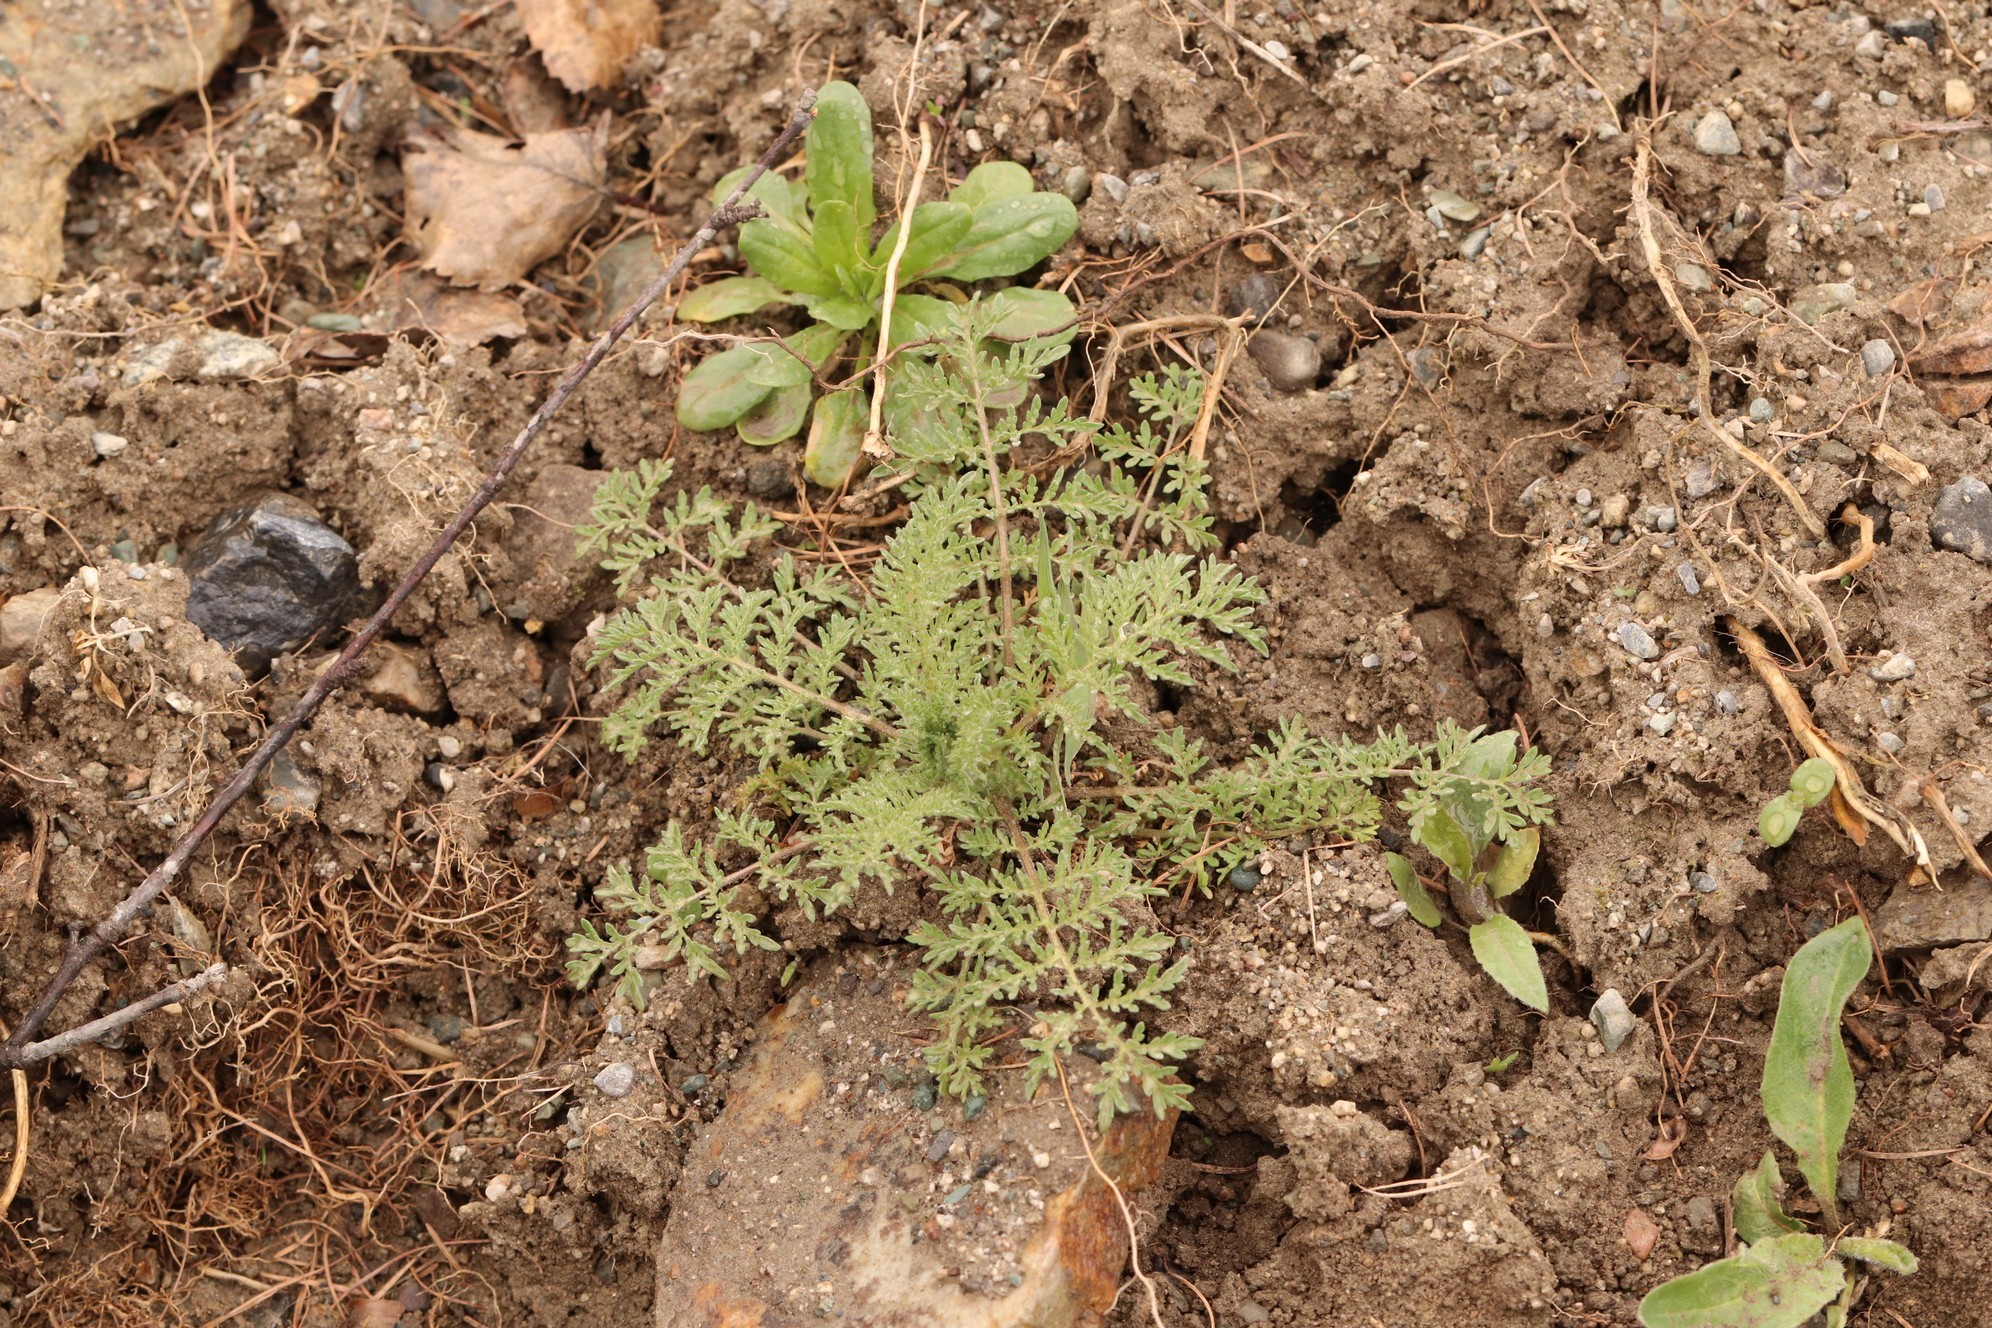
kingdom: Plantae
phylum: Tracheophyta
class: Magnoliopsida
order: Brassicales
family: Brassicaceae
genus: Descurainia
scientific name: Descurainia sophia
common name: Flixweed
